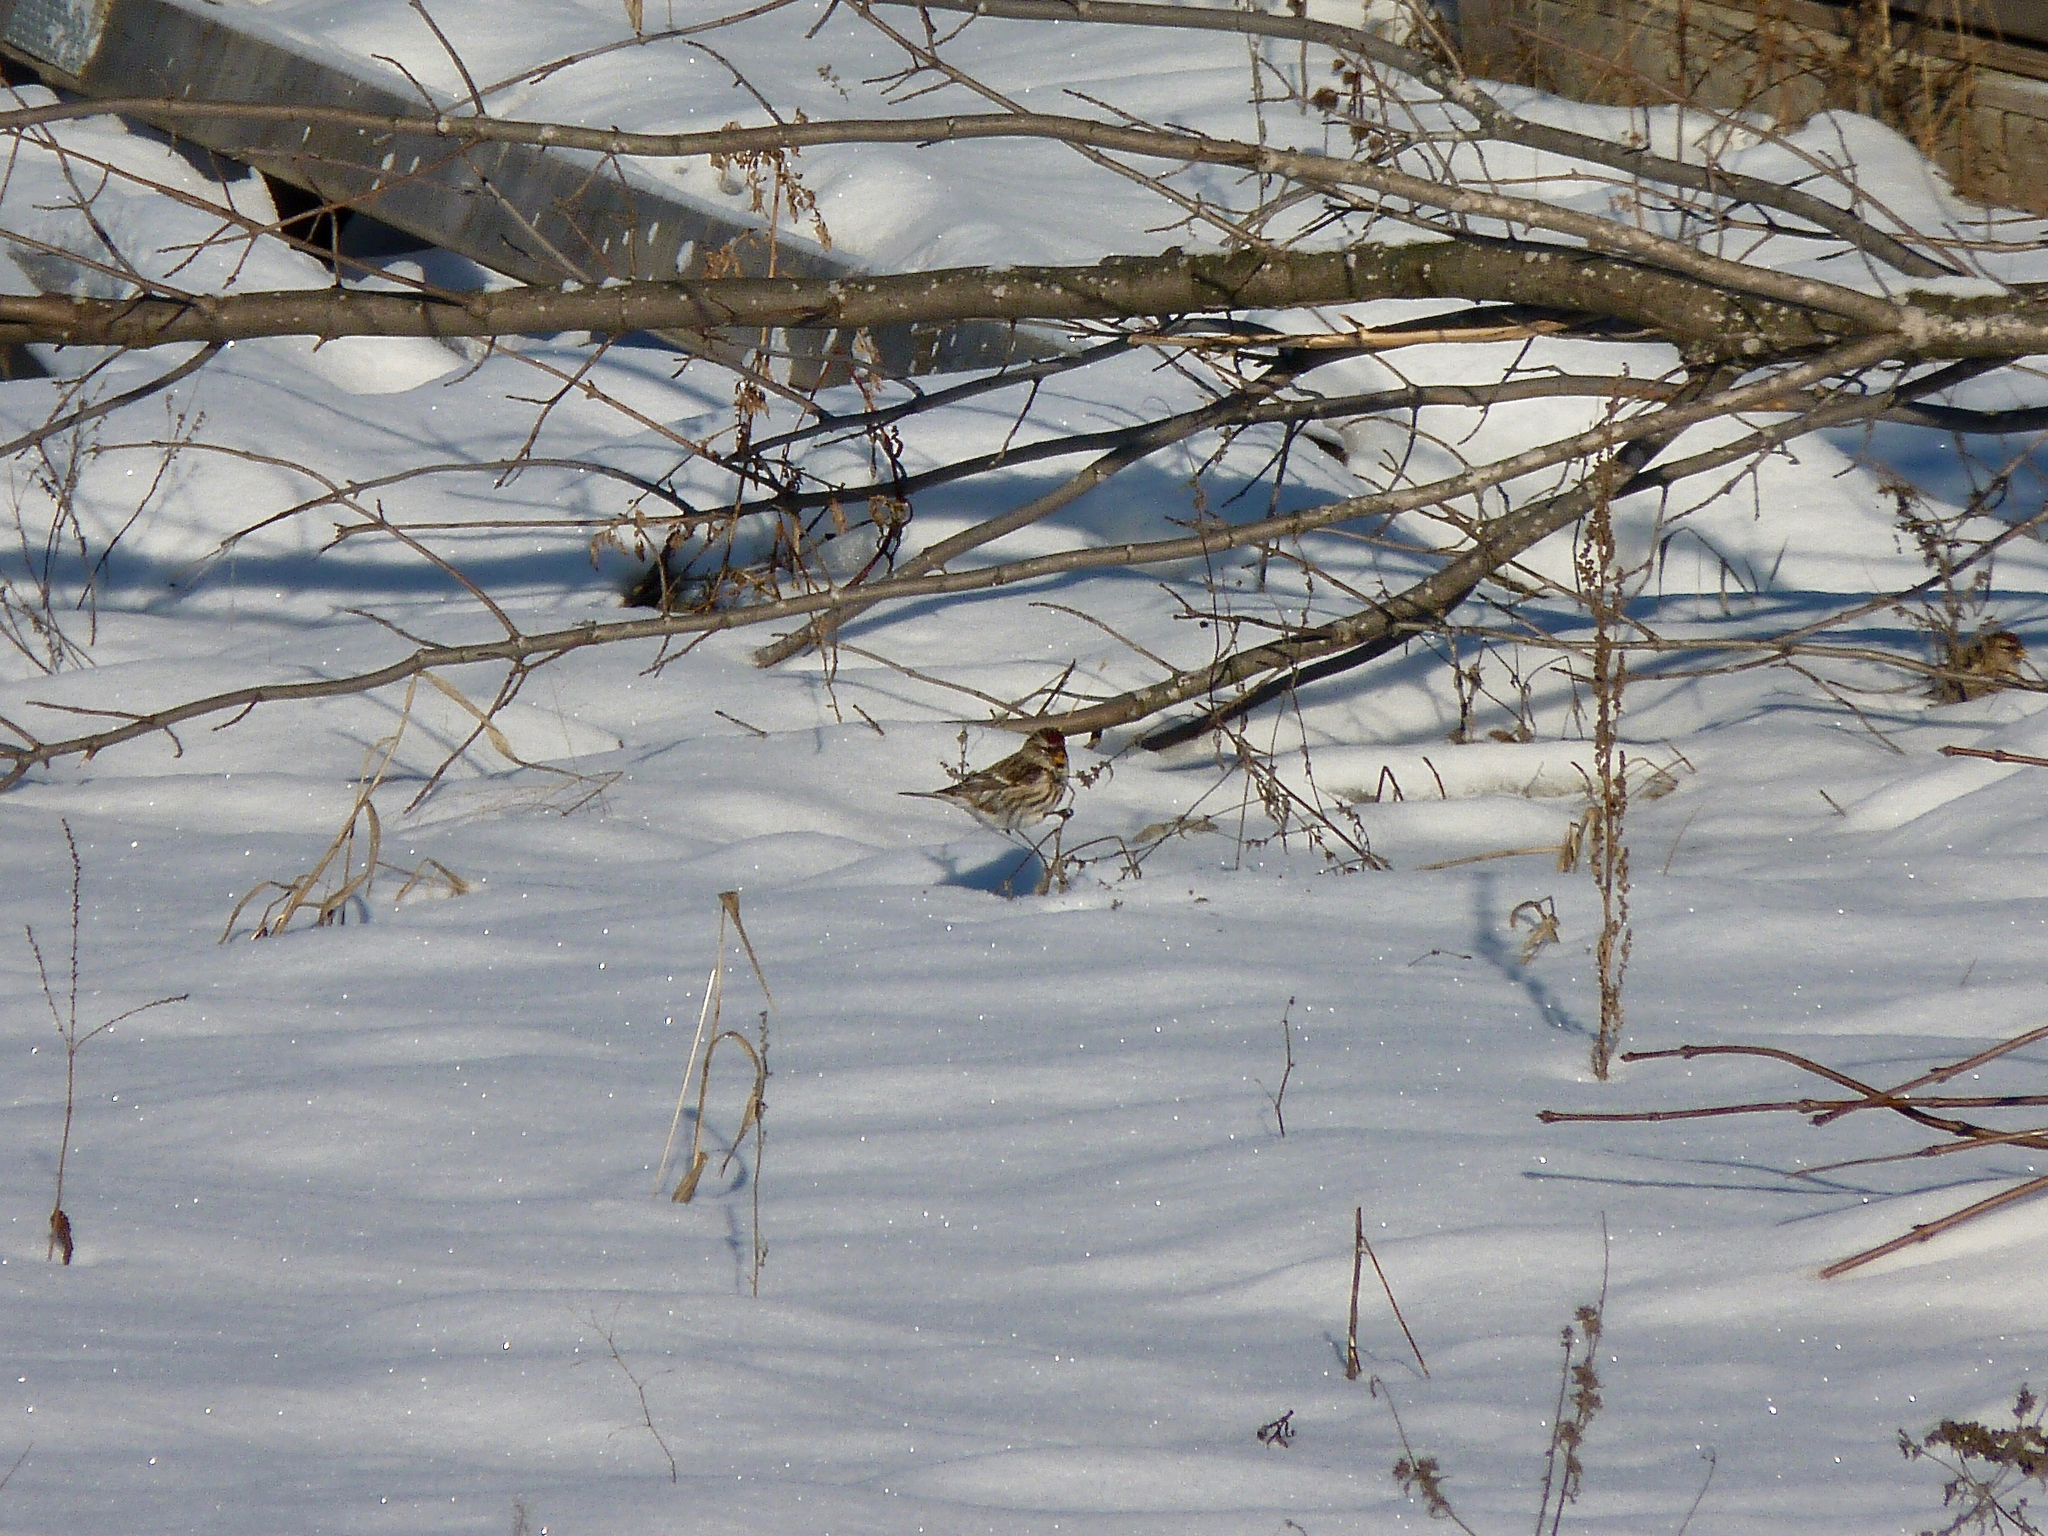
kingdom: Animalia
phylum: Chordata
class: Aves
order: Passeriformes
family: Fringillidae
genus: Acanthis
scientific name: Acanthis flammea
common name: Common redpoll
